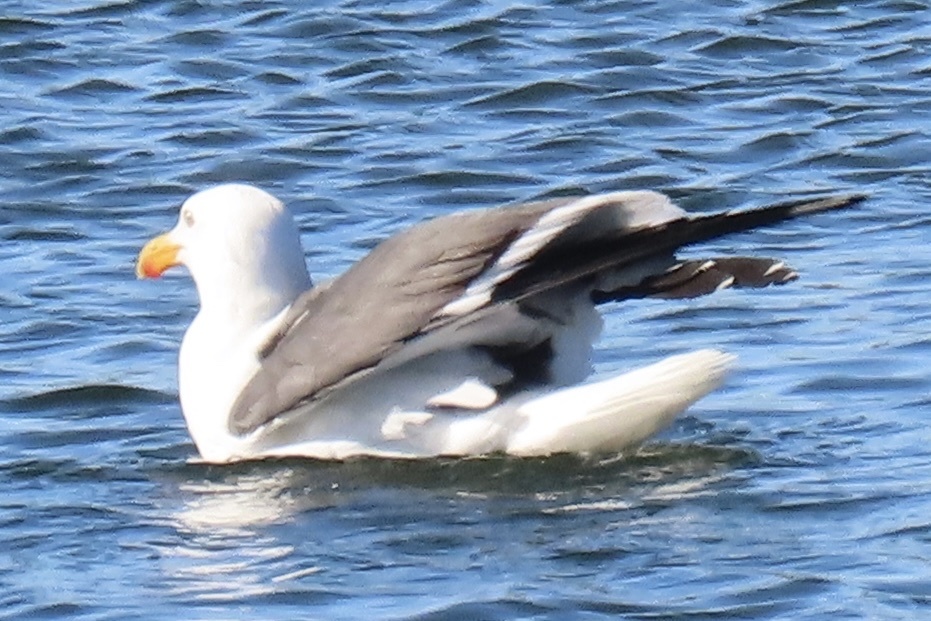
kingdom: Animalia
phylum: Chordata
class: Aves
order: Charadriiformes
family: Laridae
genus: Larus
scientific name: Larus occidentalis
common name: Western gull
